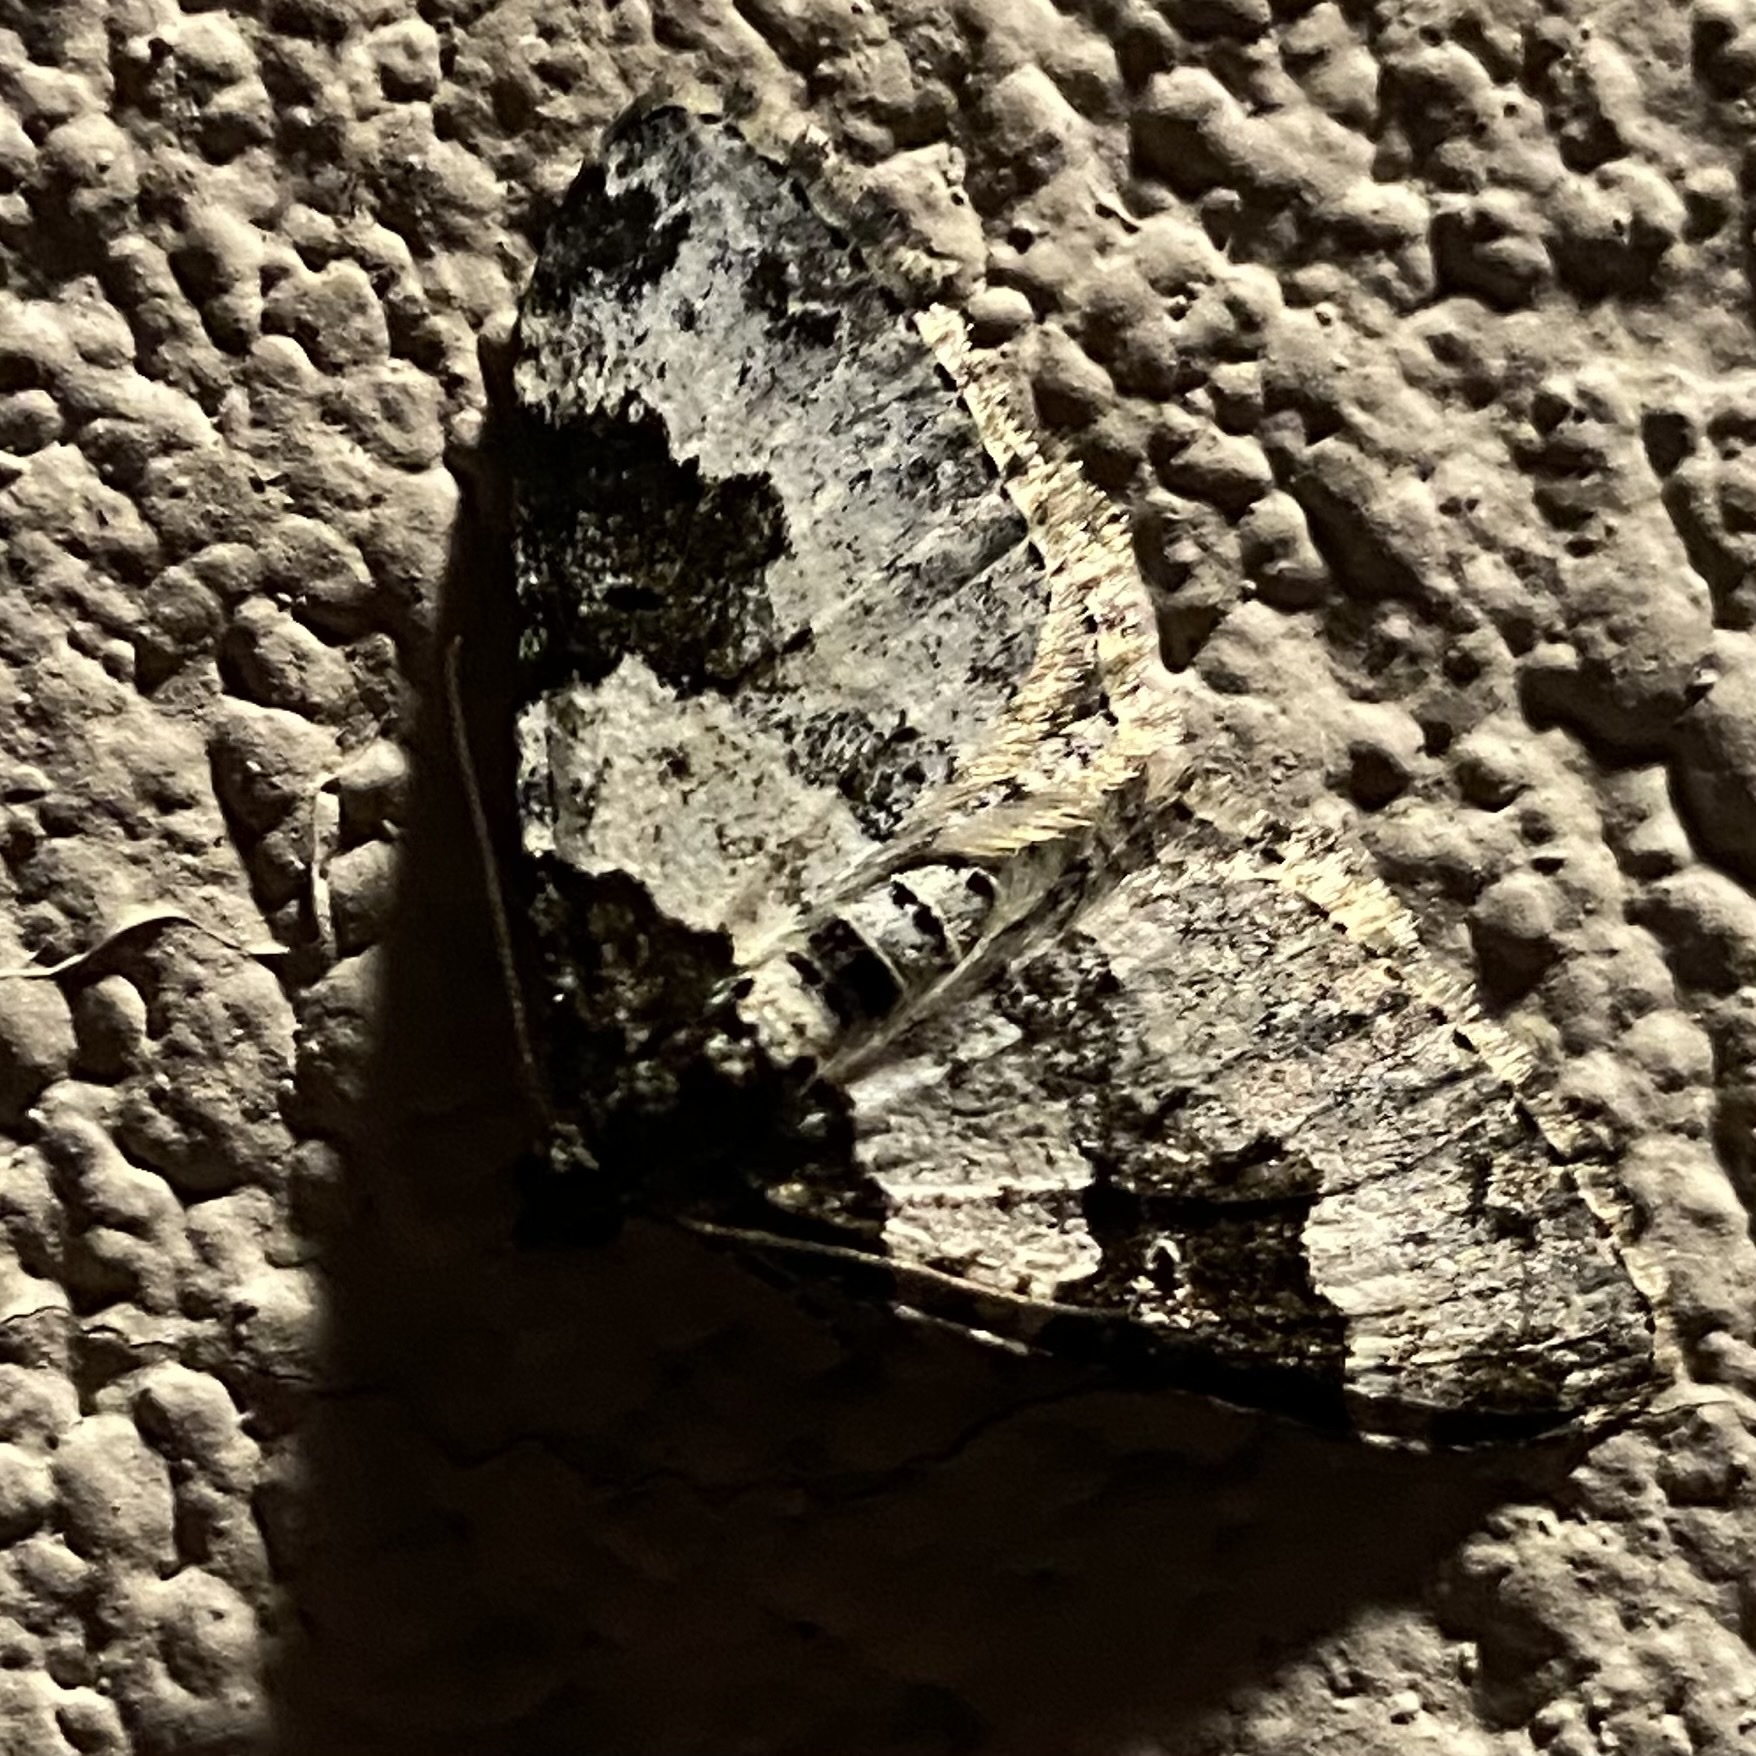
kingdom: Animalia
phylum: Arthropoda
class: Insecta
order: Lepidoptera
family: Geometridae
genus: Xanthorhoe
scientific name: Xanthorhoe fluctuata
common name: Garden carpet
